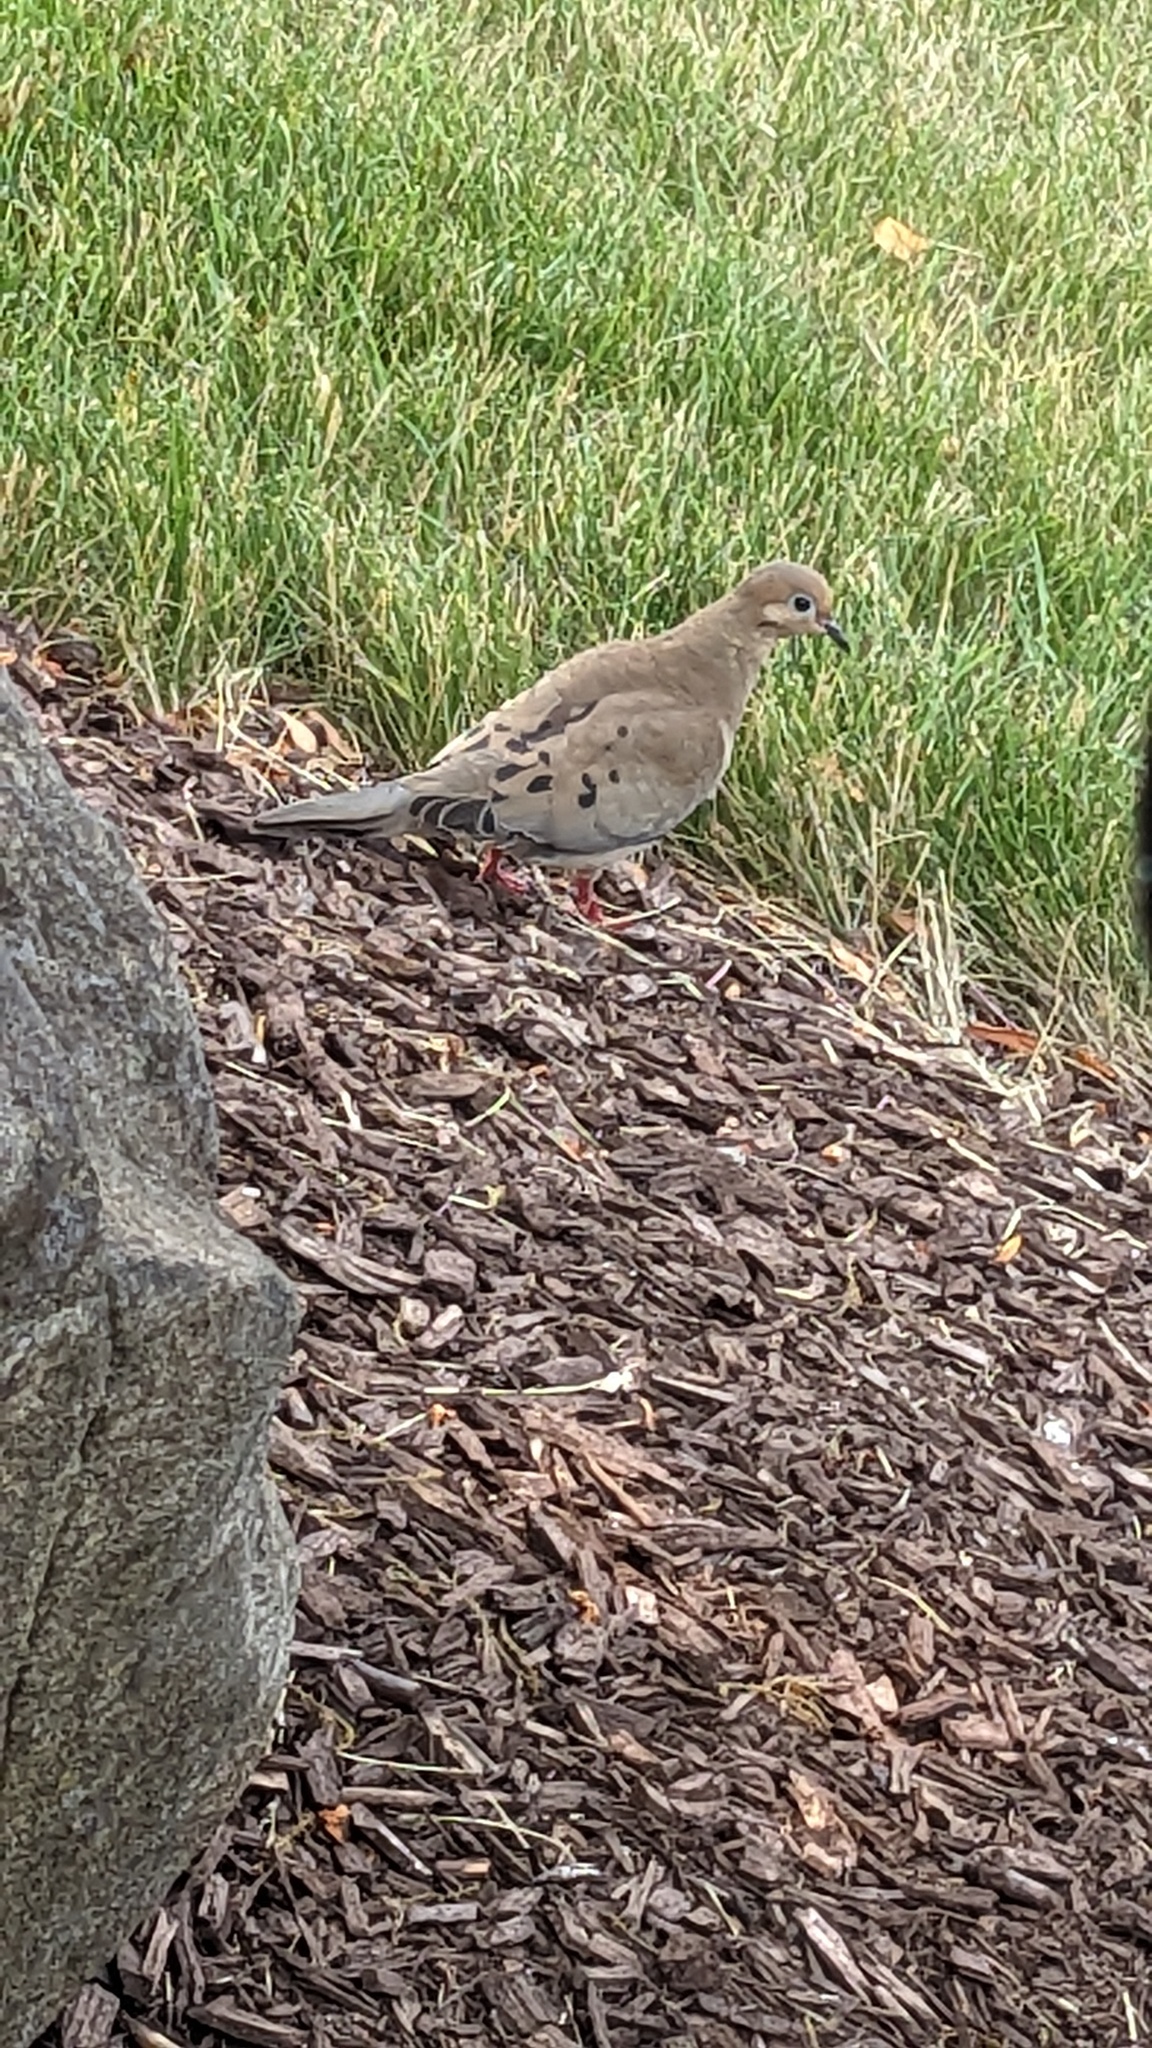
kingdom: Animalia
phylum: Chordata
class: Aves
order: Columbiformes
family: Columbidae
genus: Zenaida
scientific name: Zenaida macroura
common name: Mourning dove
